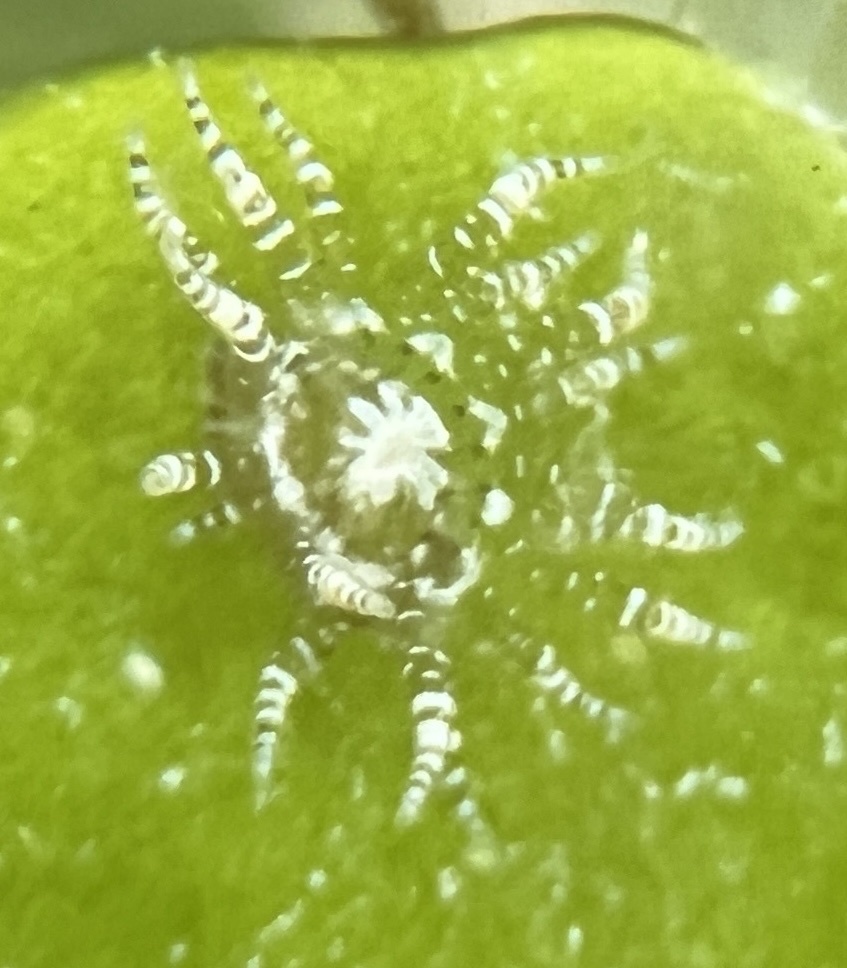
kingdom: Animalia
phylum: Cnidaria
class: Anthozoa
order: Actiniaria
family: Boloceroididae
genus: Bunodeopsis
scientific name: Bunodeopsis globulifera
